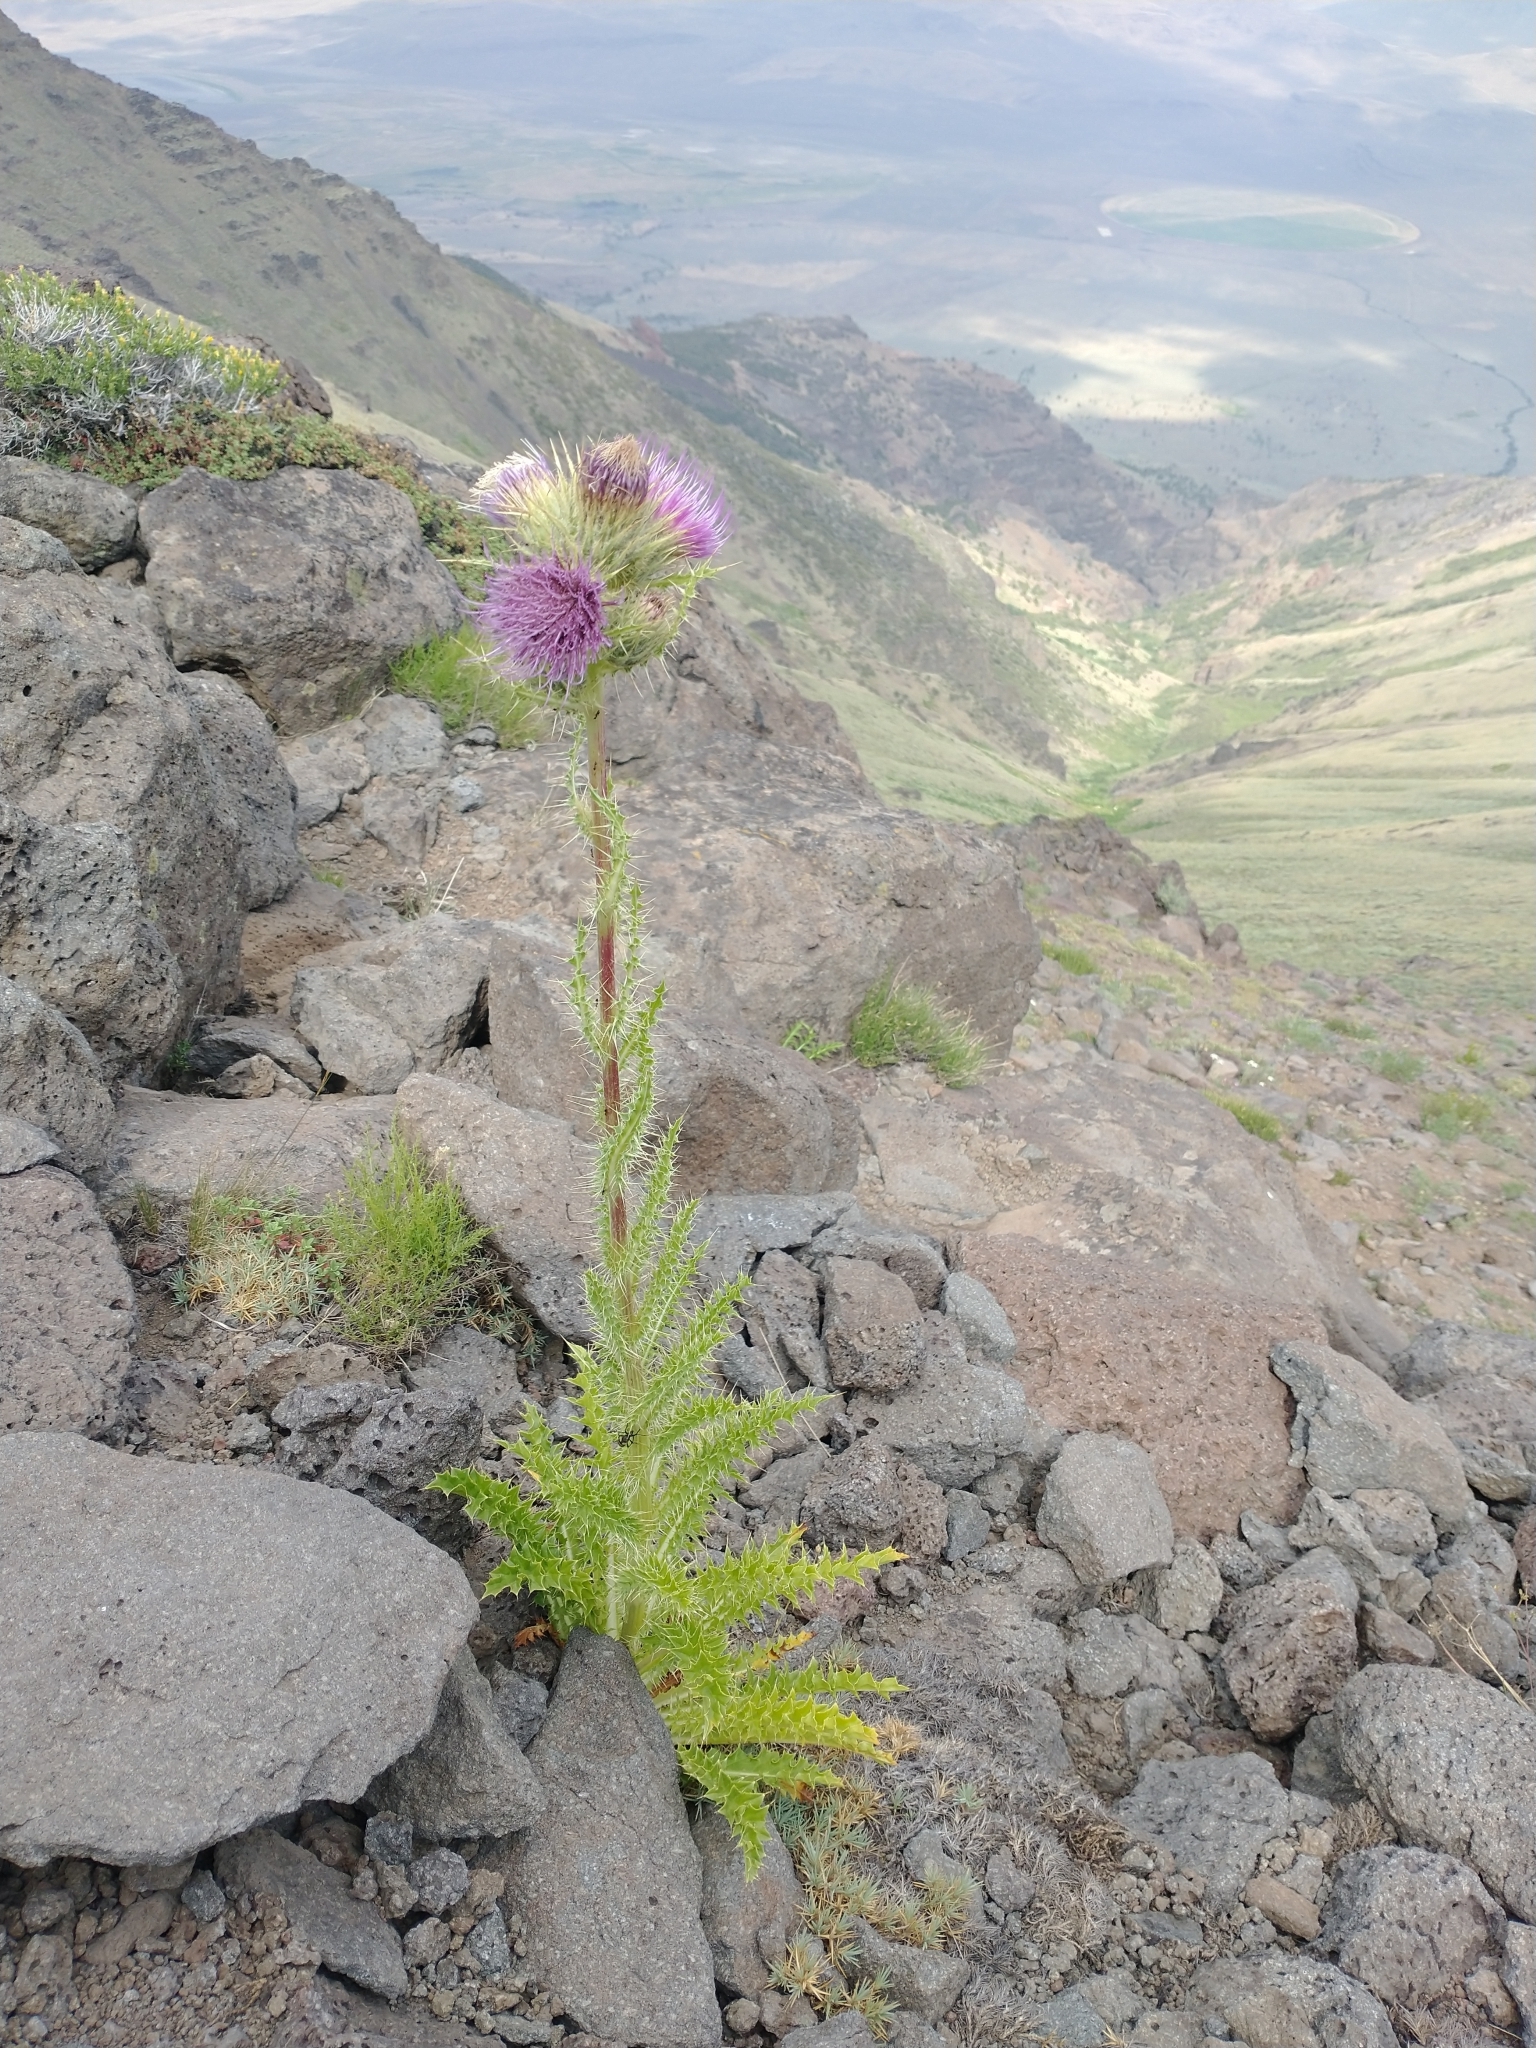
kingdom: Plantae
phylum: Tracheophyta
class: Magnoliopsida
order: Asterales
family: Asteraceae
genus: Cirsium
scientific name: Cirsium peckii
